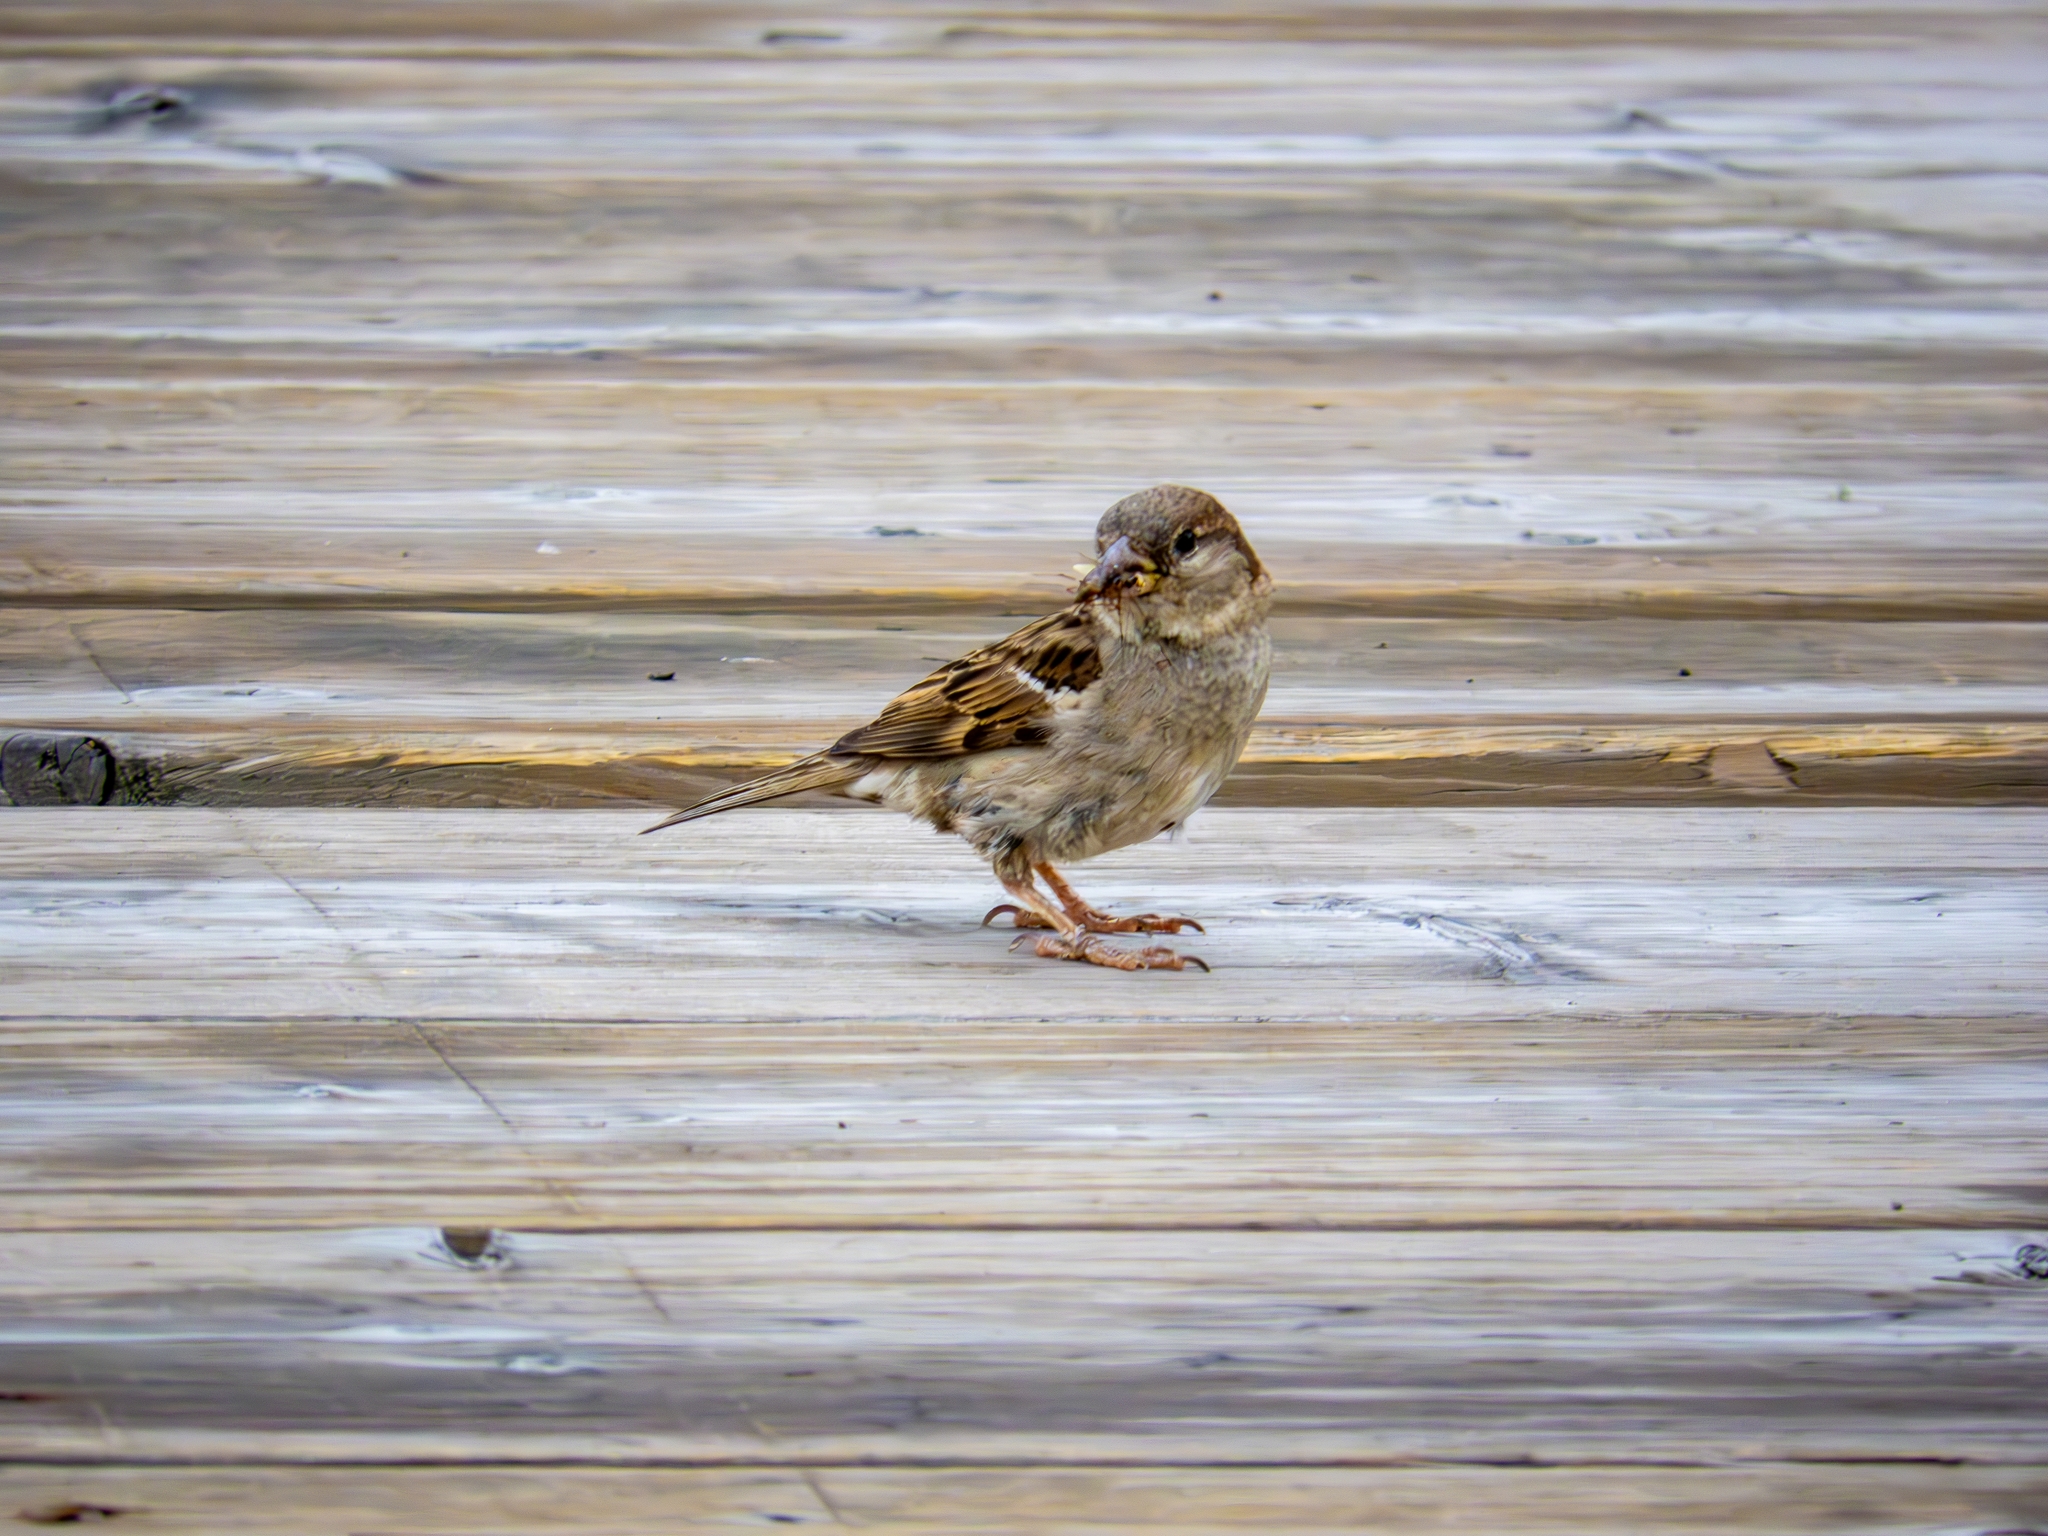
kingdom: Animalia
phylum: Chordata
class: Aves
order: Passeriformes
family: Passeridae
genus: Passer
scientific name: Passer domesticus
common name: House sparrow
